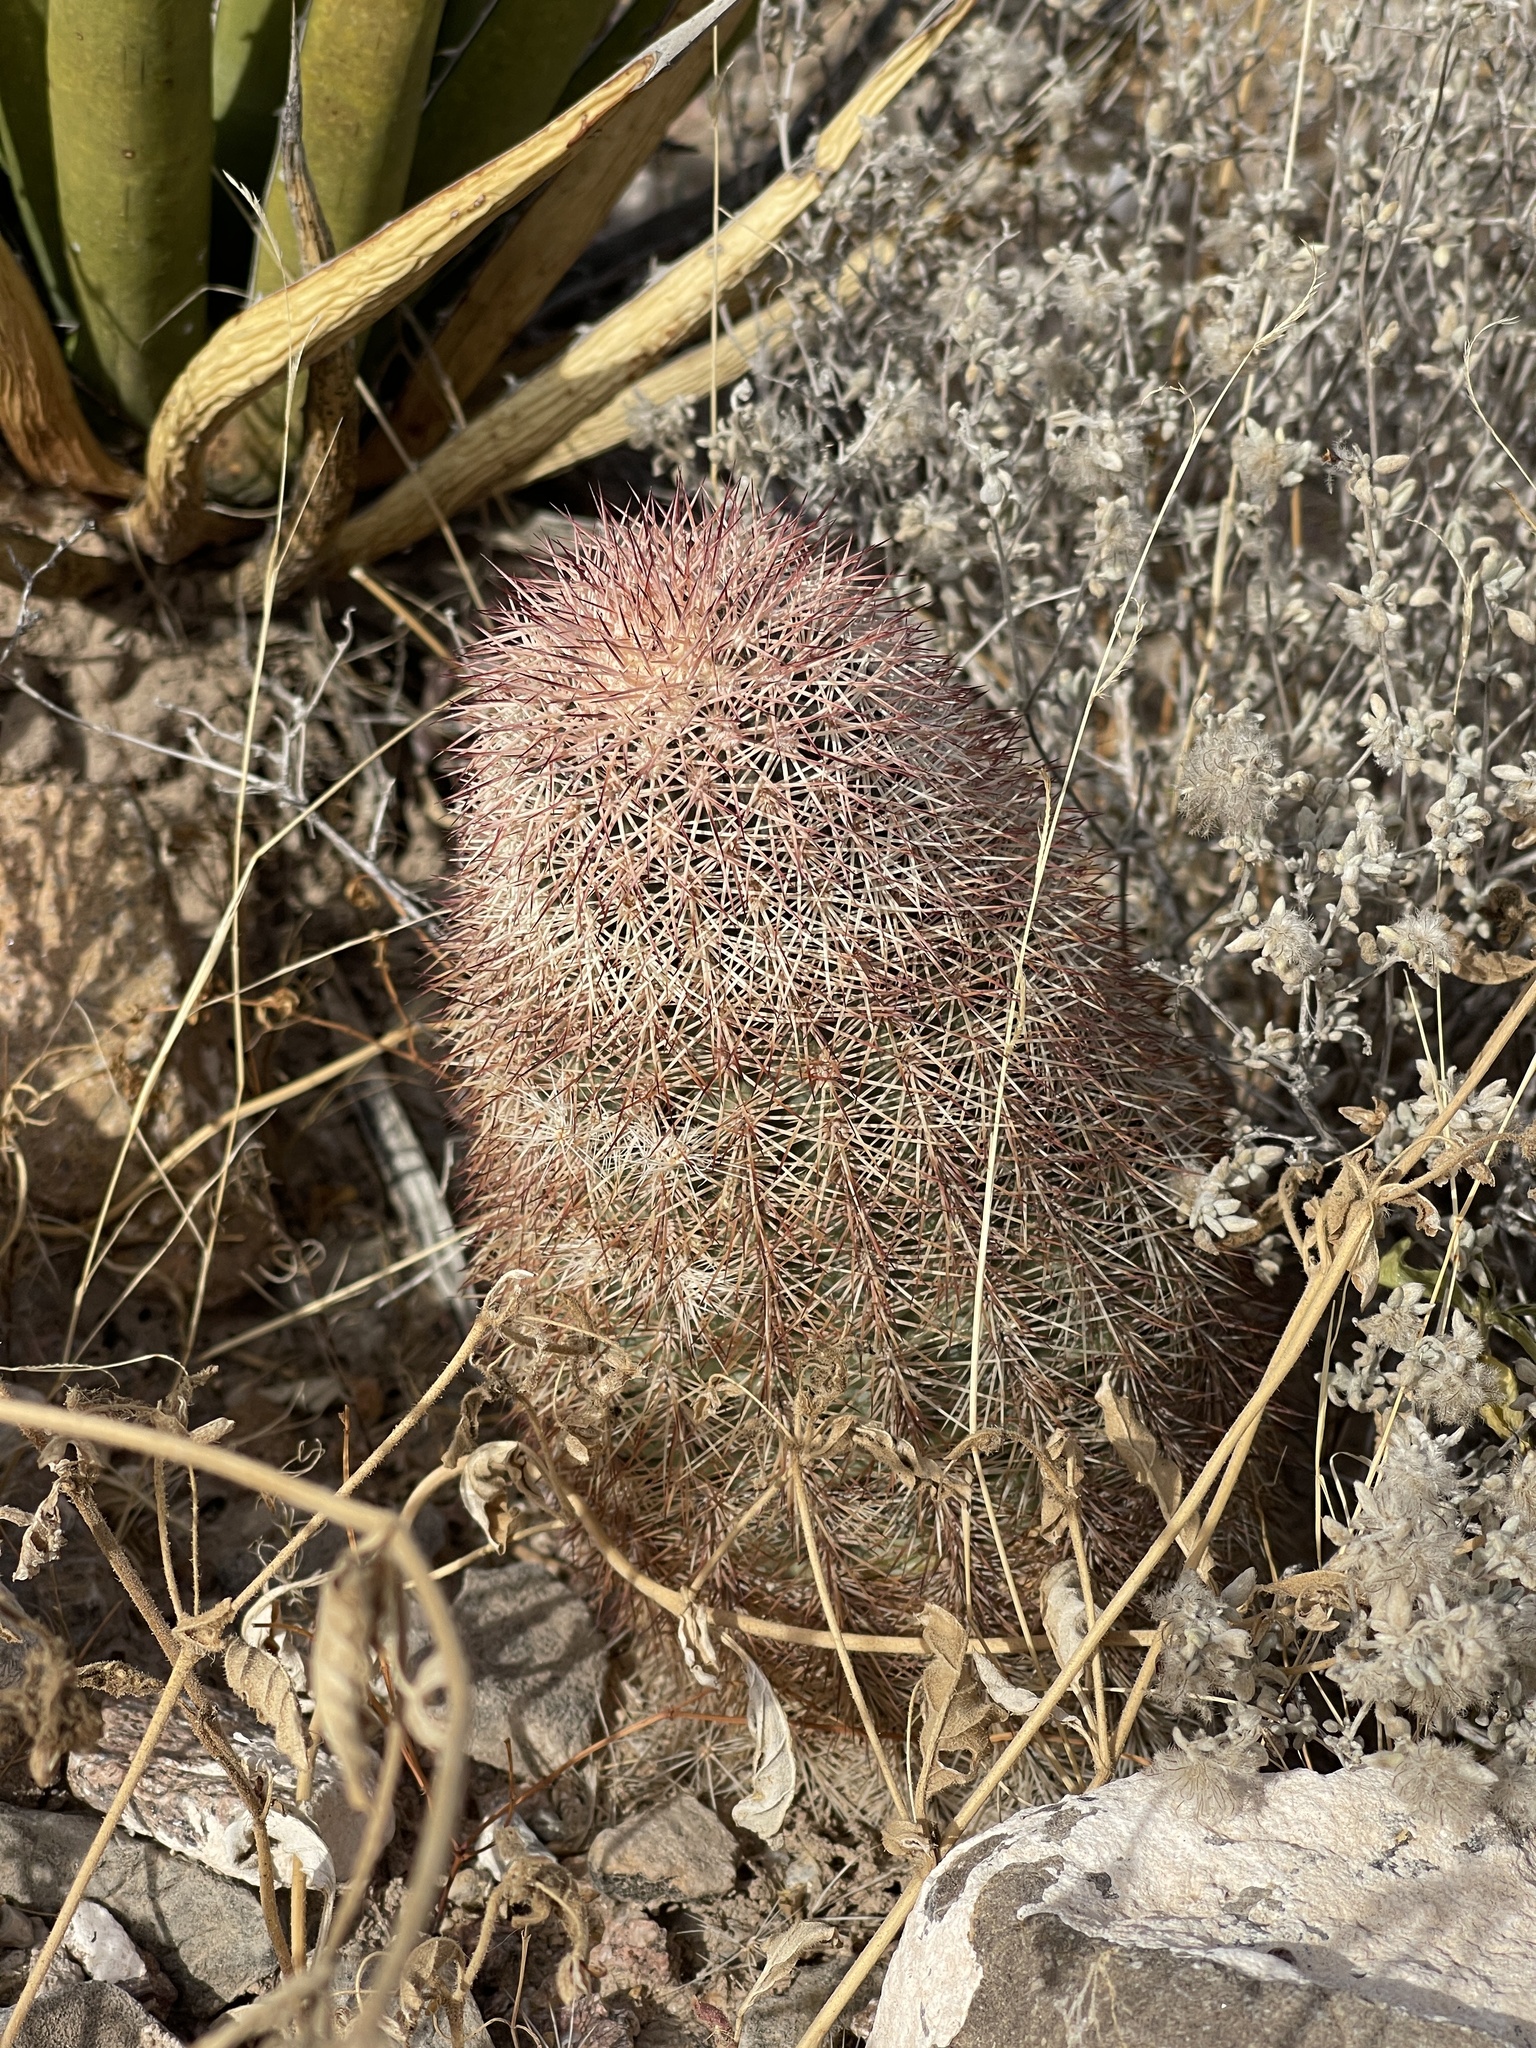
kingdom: Plantae
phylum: Tracheophyta
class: Magnoliopsida
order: Caryophyllales
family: Cactaceae
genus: Echinocereus
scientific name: Echinocereus dasyacanthus
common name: Spiny hedgehog cactus
